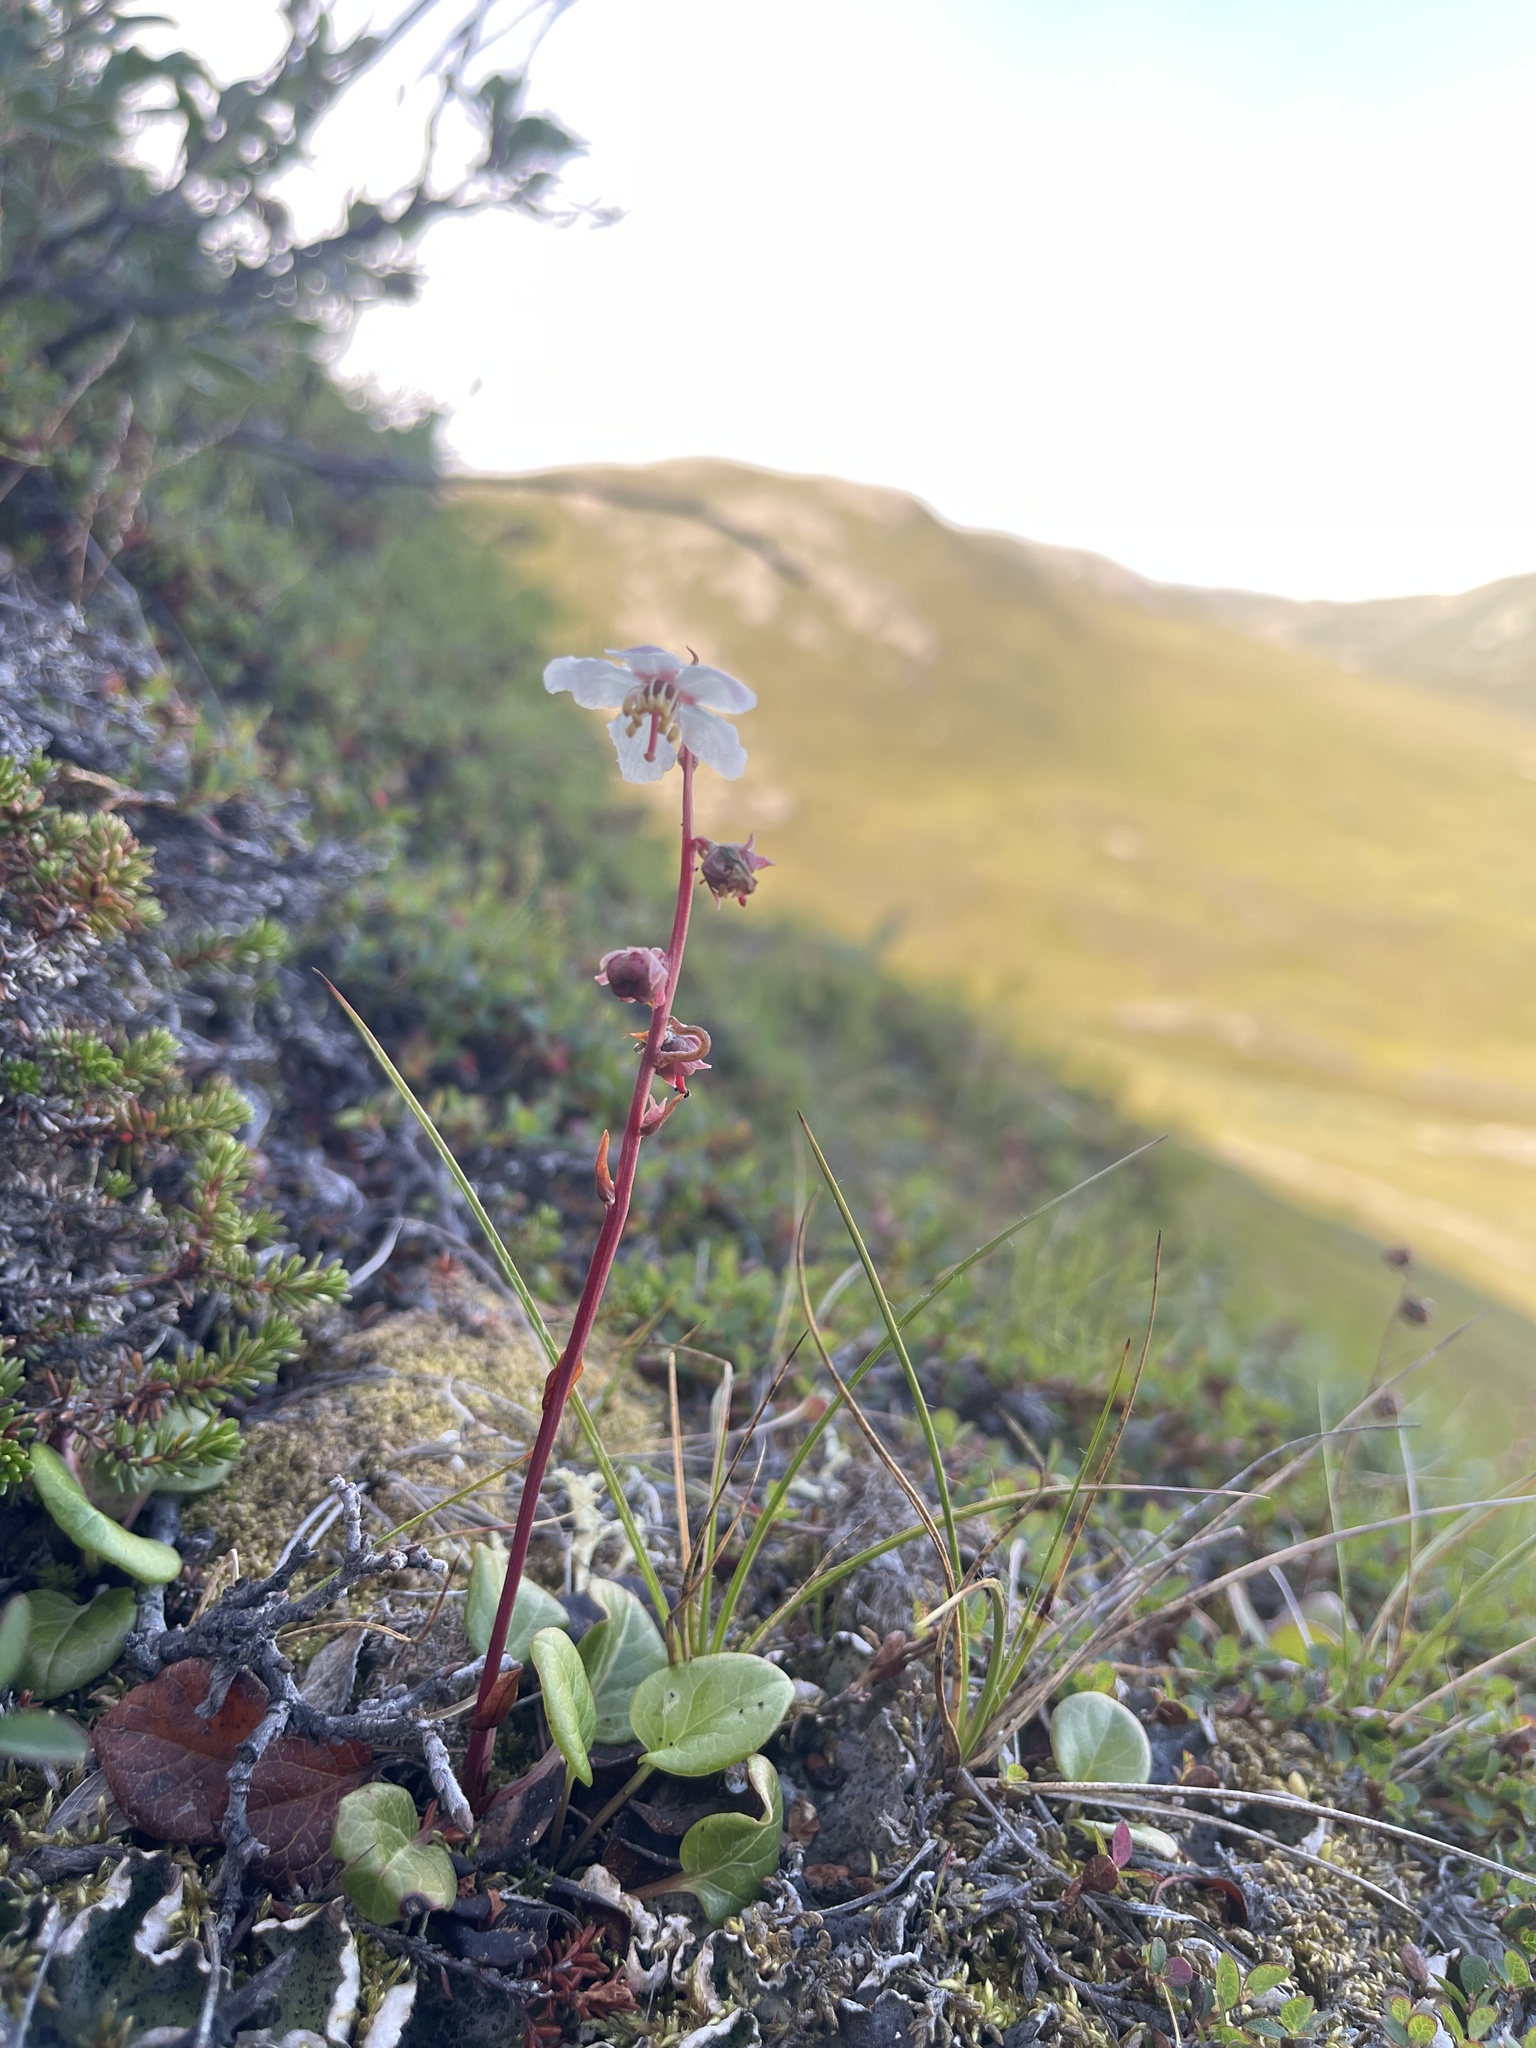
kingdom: Plantae
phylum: Tracheophyta
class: Magnoliopsida
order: Ericales
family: Ericaceae
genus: Pyrola
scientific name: Pyrola grandiflora
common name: Arctic pyrola
